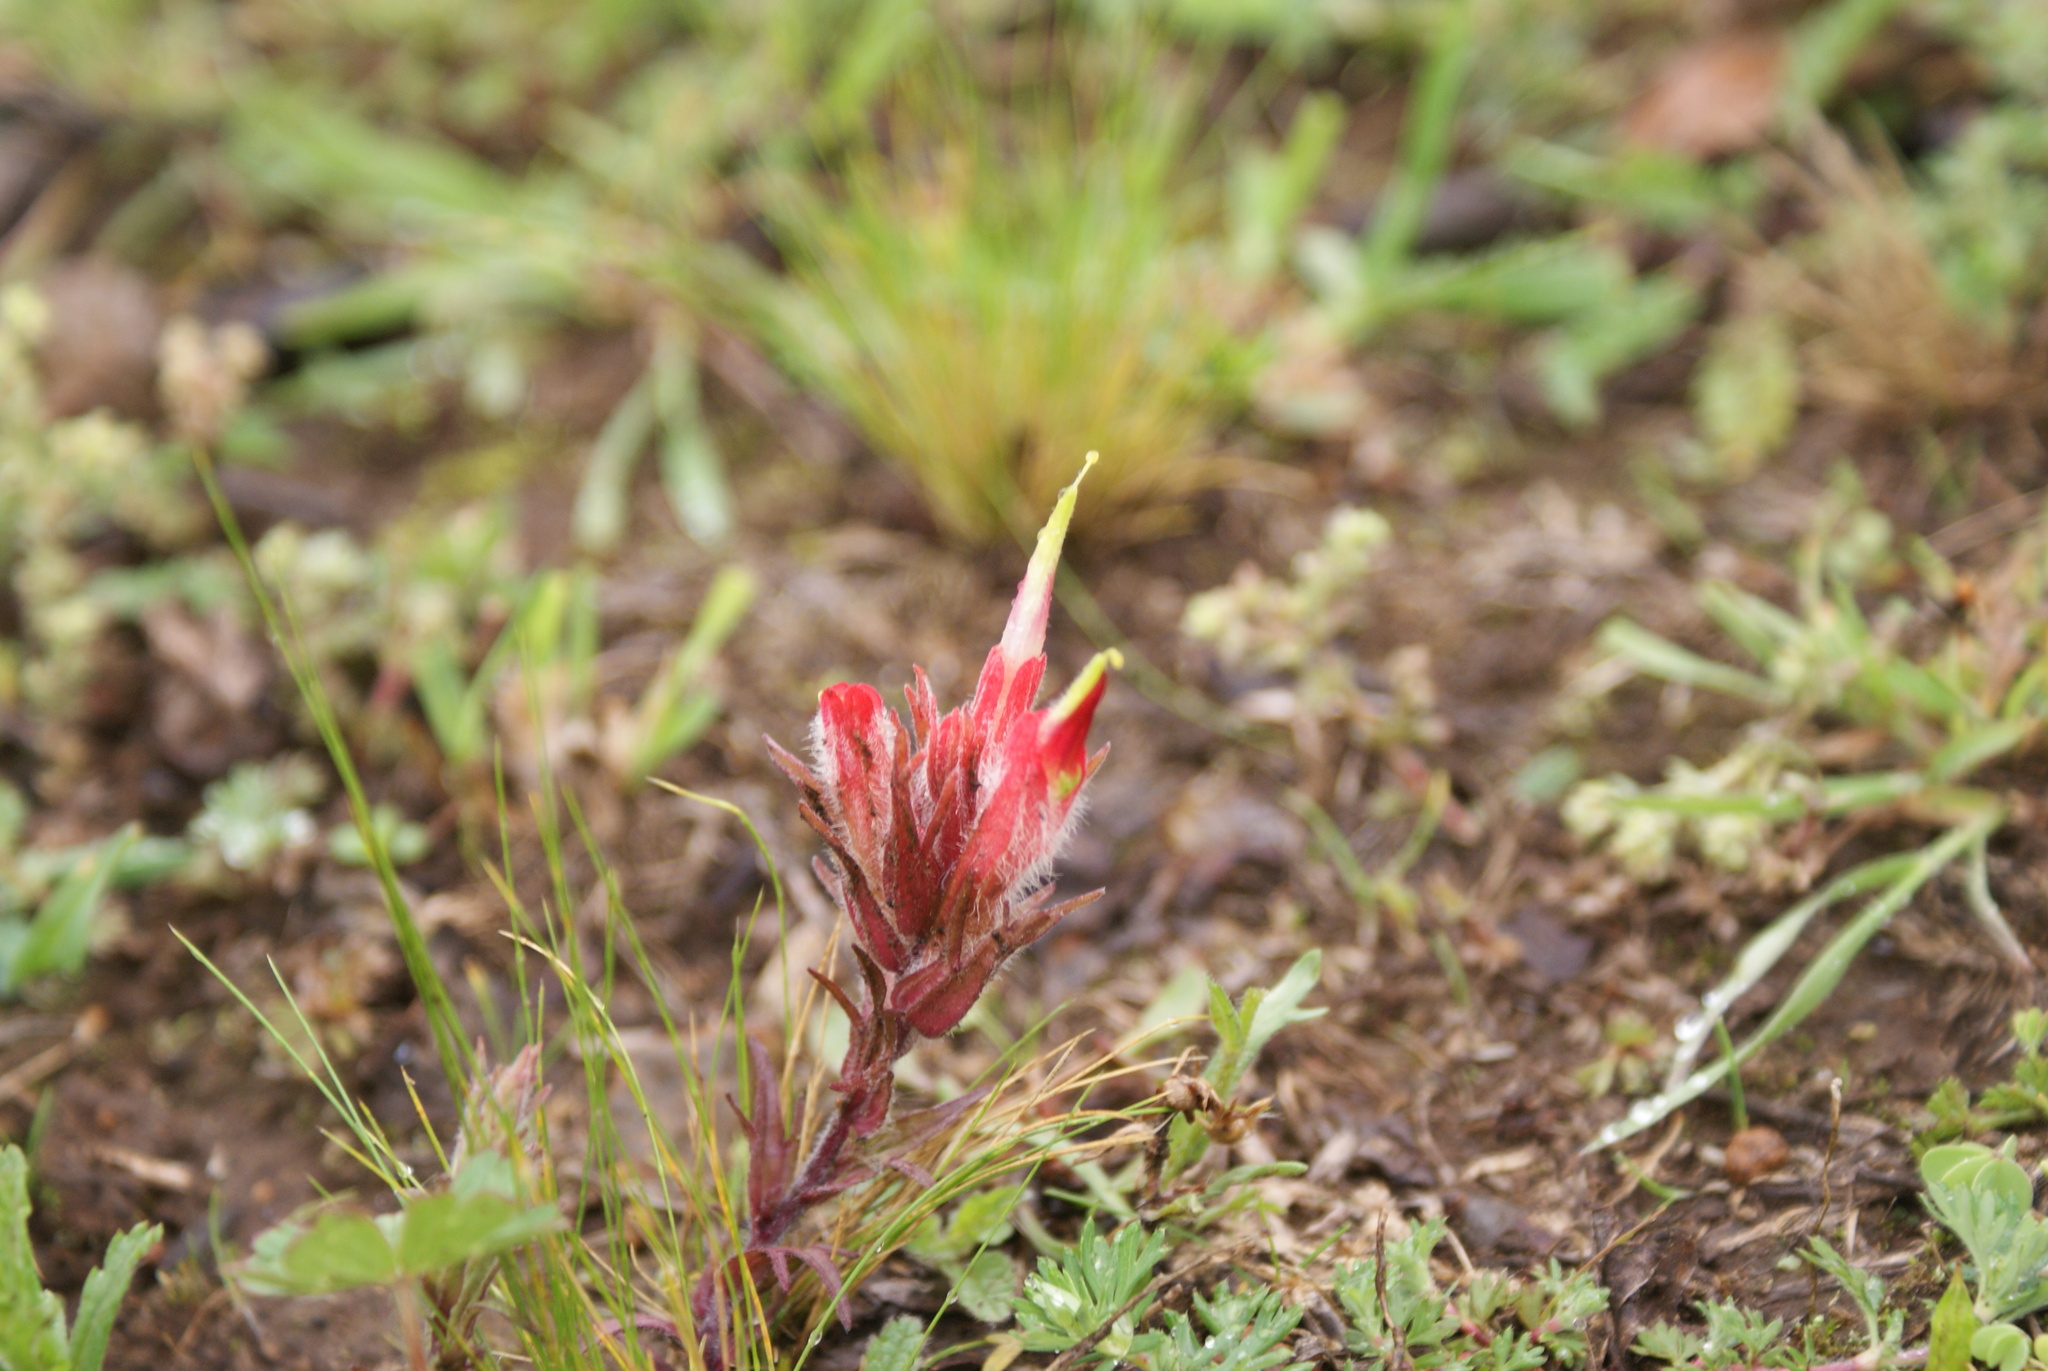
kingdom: Plantae
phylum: Tracheophyta
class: Magnoliopsida
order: Lamiales
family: Orobanchaceae
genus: Castilleja
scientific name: Castilleja moranensis
